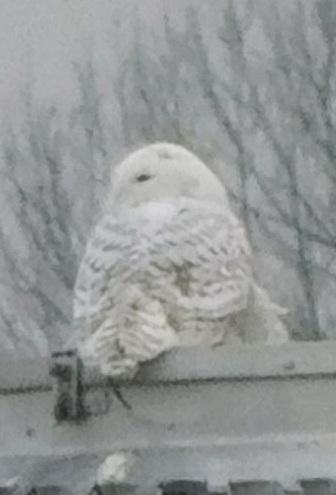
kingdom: Animalia
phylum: Chordata
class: Aves
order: Strigiformes
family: Strigidae
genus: Bubo
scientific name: Bubo scandiacus
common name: Snowy owl
